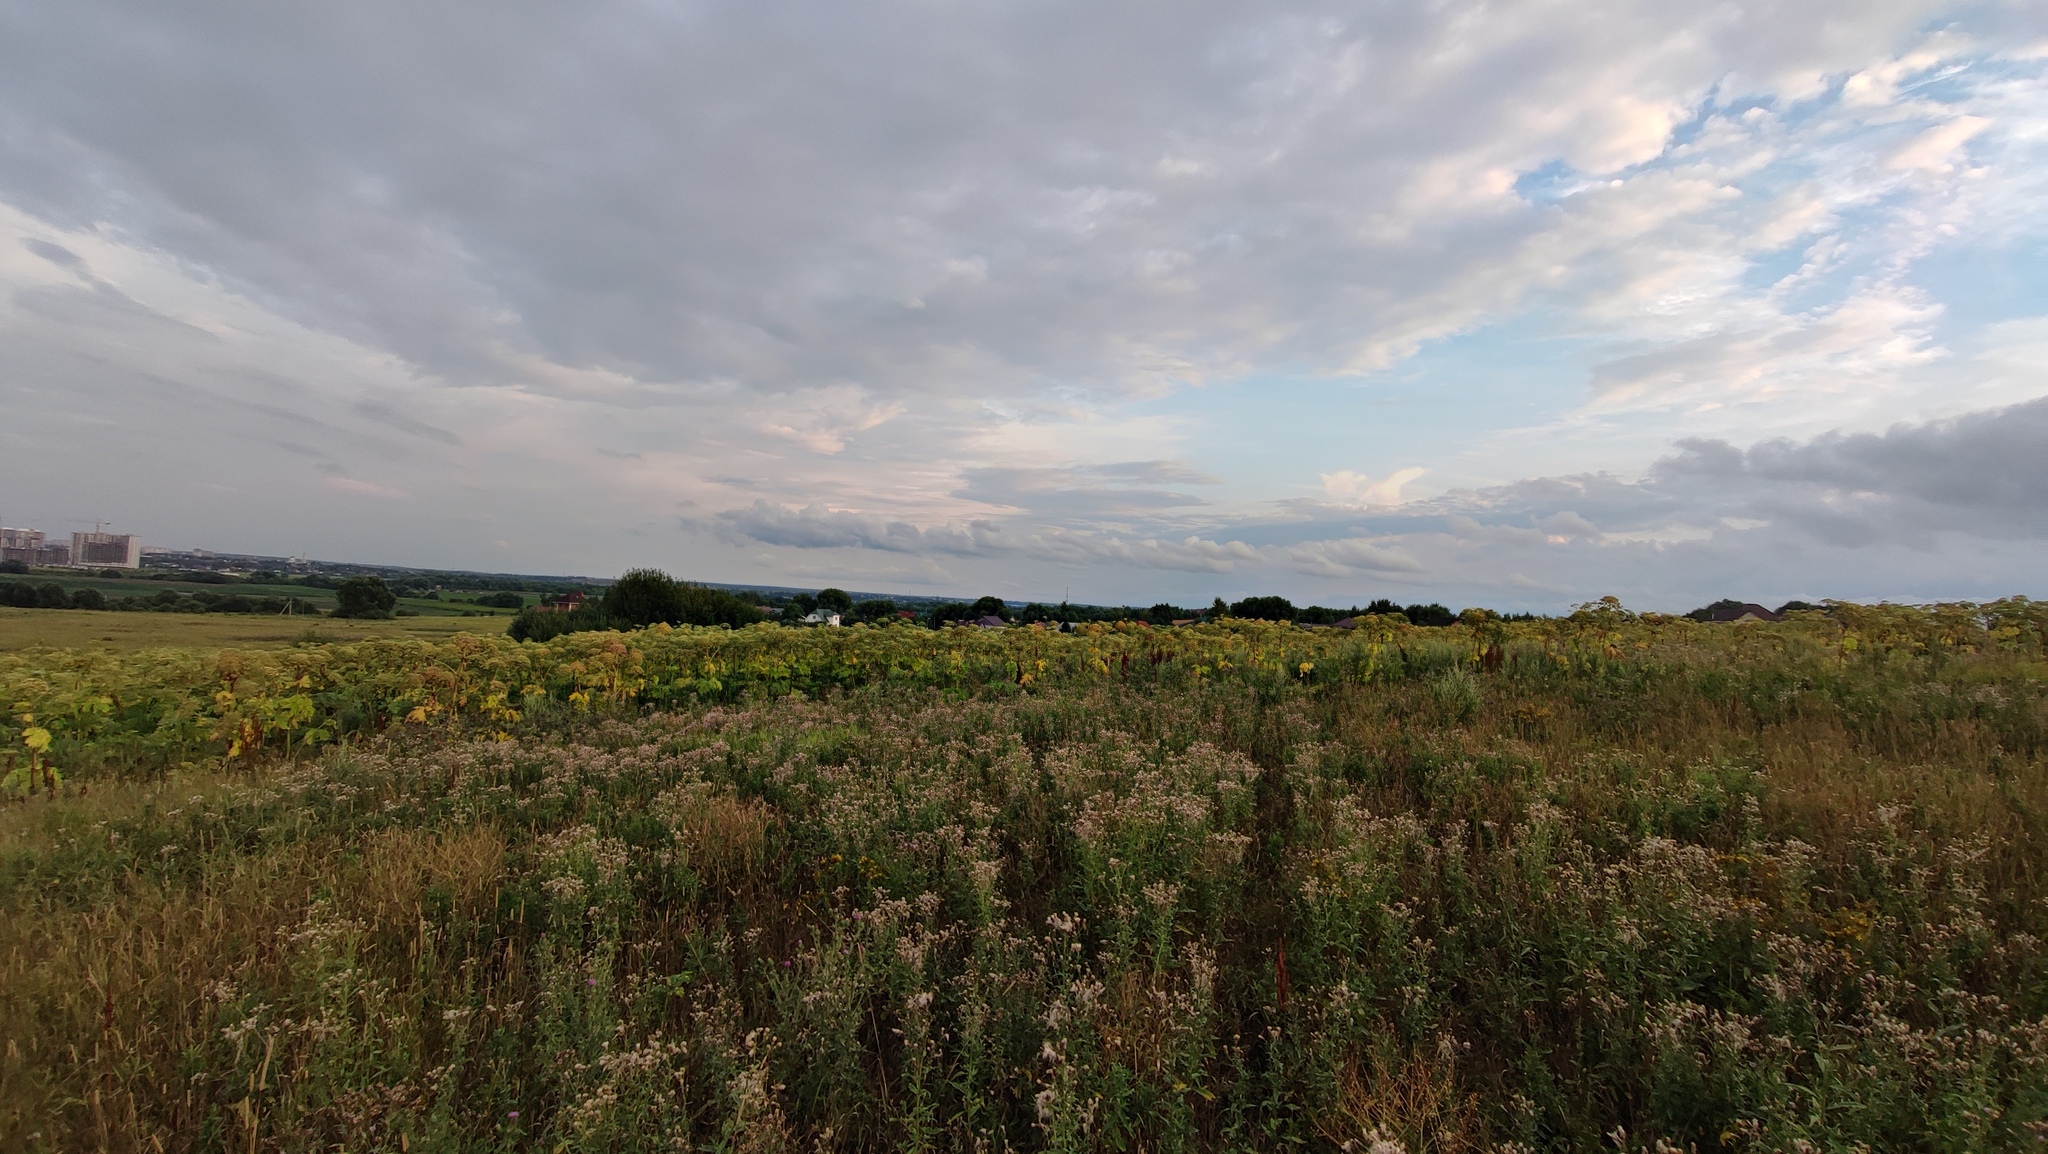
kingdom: Plantae
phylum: Tracheophyta
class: Magnoliopsida
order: Apiales
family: Apiaceae
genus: Heracleum
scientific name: Heracleum sosnowskyi
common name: Sosnowsky's hogweed
